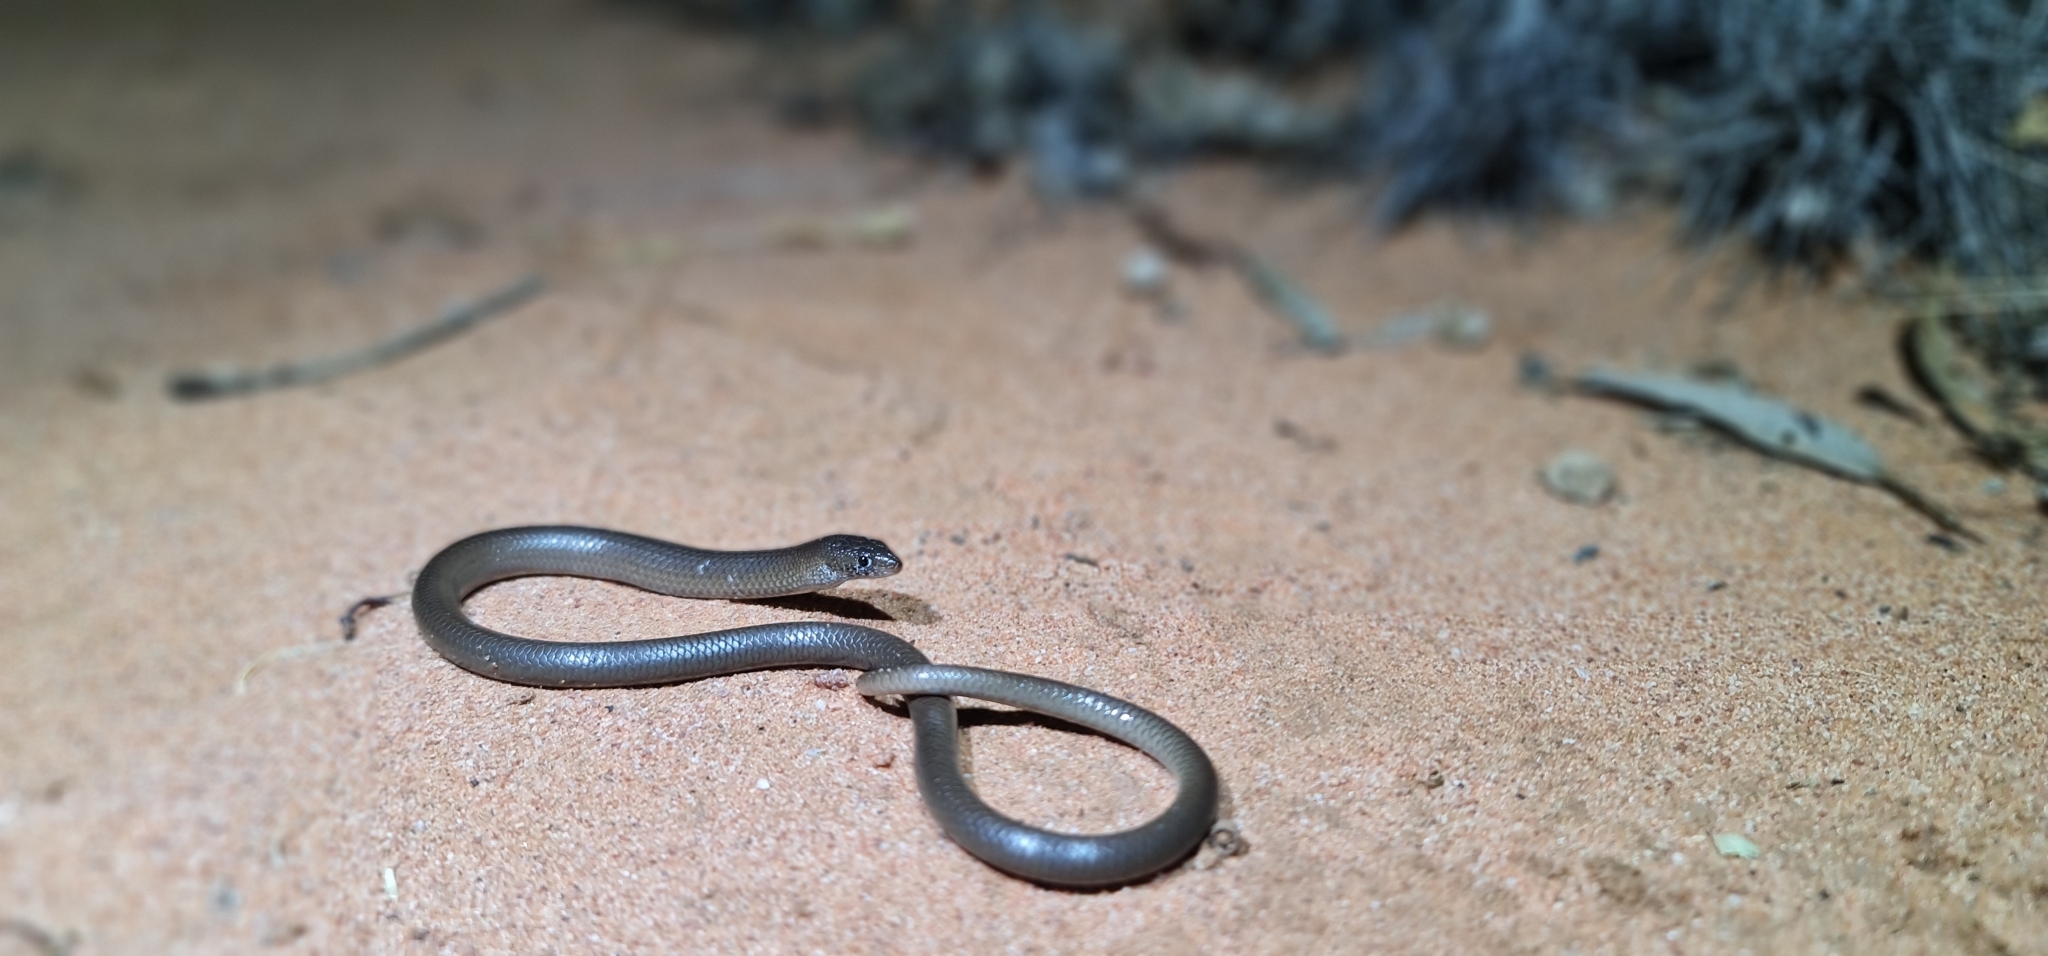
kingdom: Animalia
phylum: Chordata
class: Squamata
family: Pygopodidae
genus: Delma
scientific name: Delma butleri
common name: Butler's legless lizard
